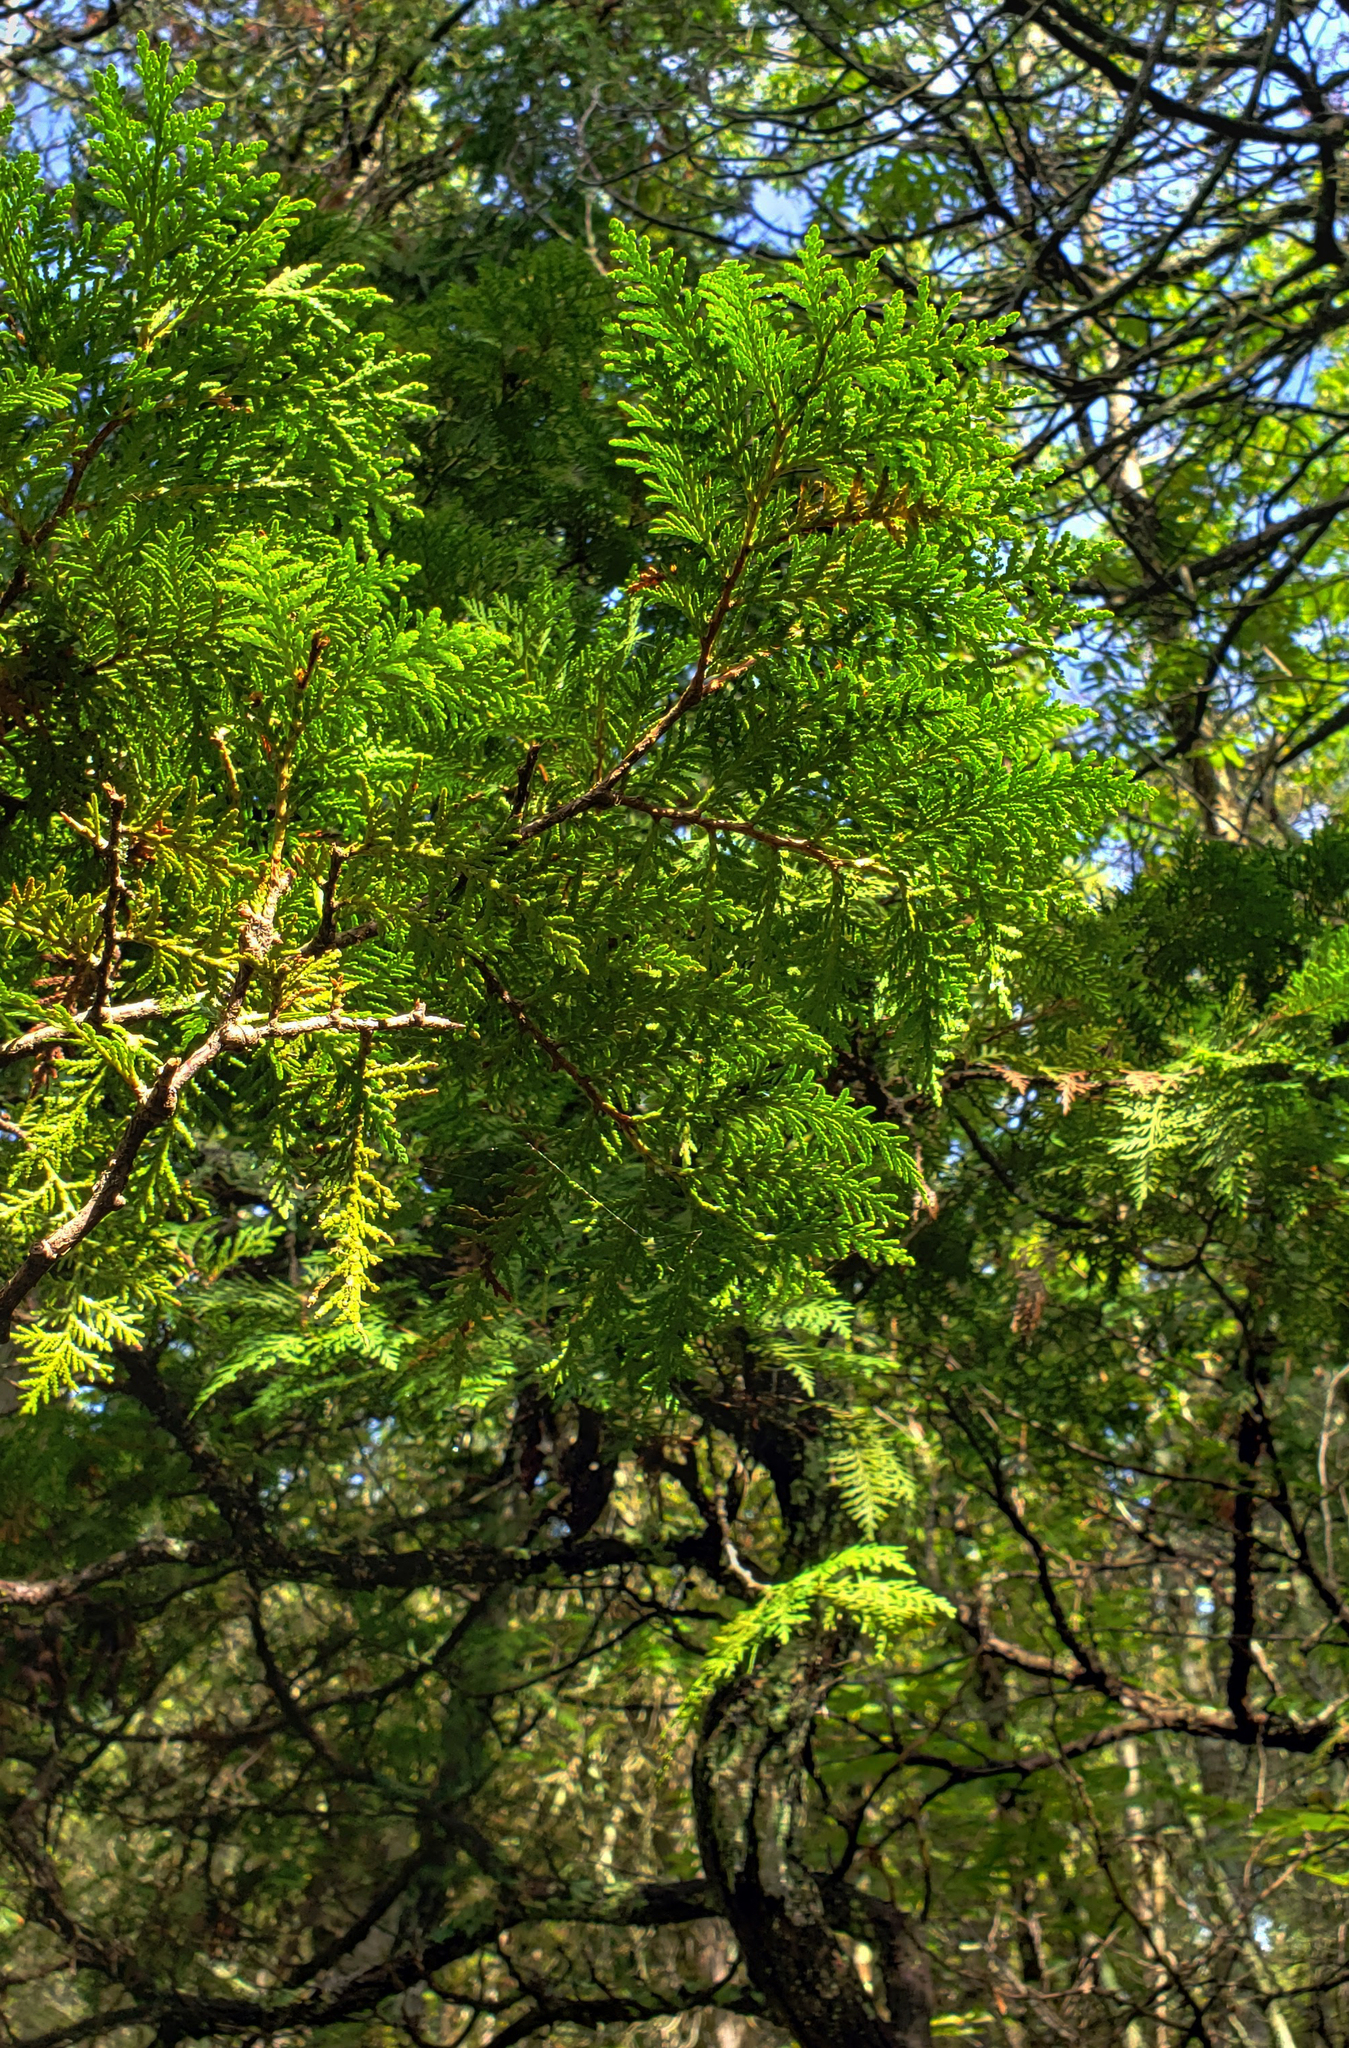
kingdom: Plantae
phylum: Tracheophyta
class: Pinopsida
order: Pinales
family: Cupressaceae
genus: Thuja
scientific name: Thuja occidentalis
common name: Northern white-cedar
